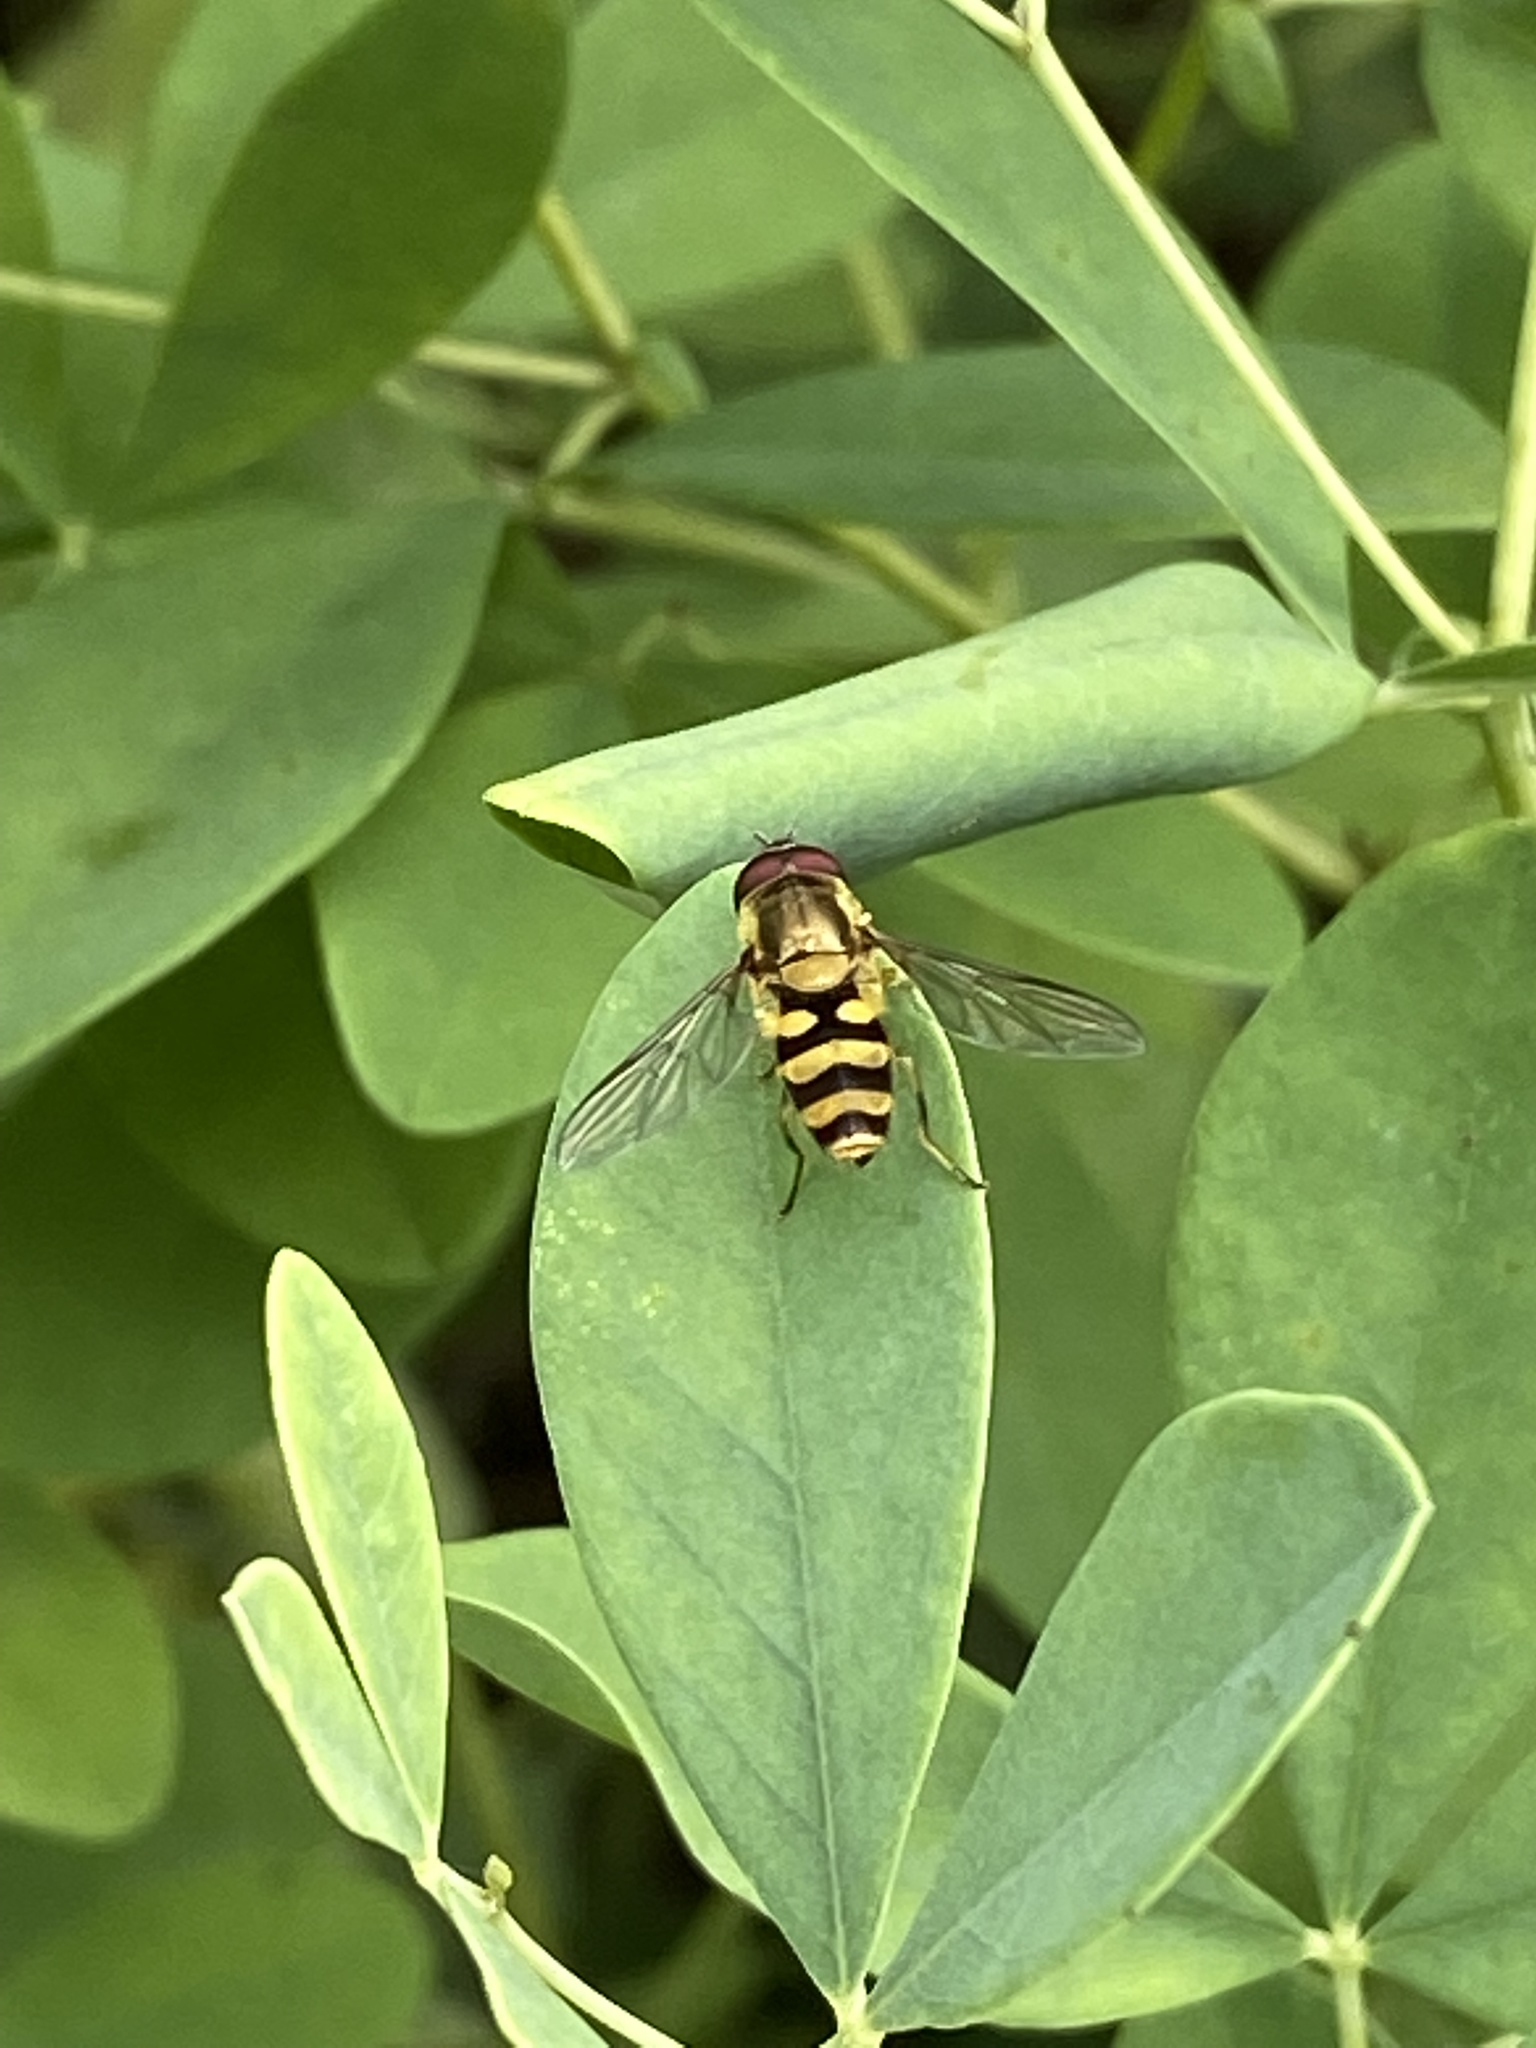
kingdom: Animalia
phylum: Arthropoda
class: Insecta
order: Diptera
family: Syrphidae
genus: Syrphus
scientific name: Syrphus
